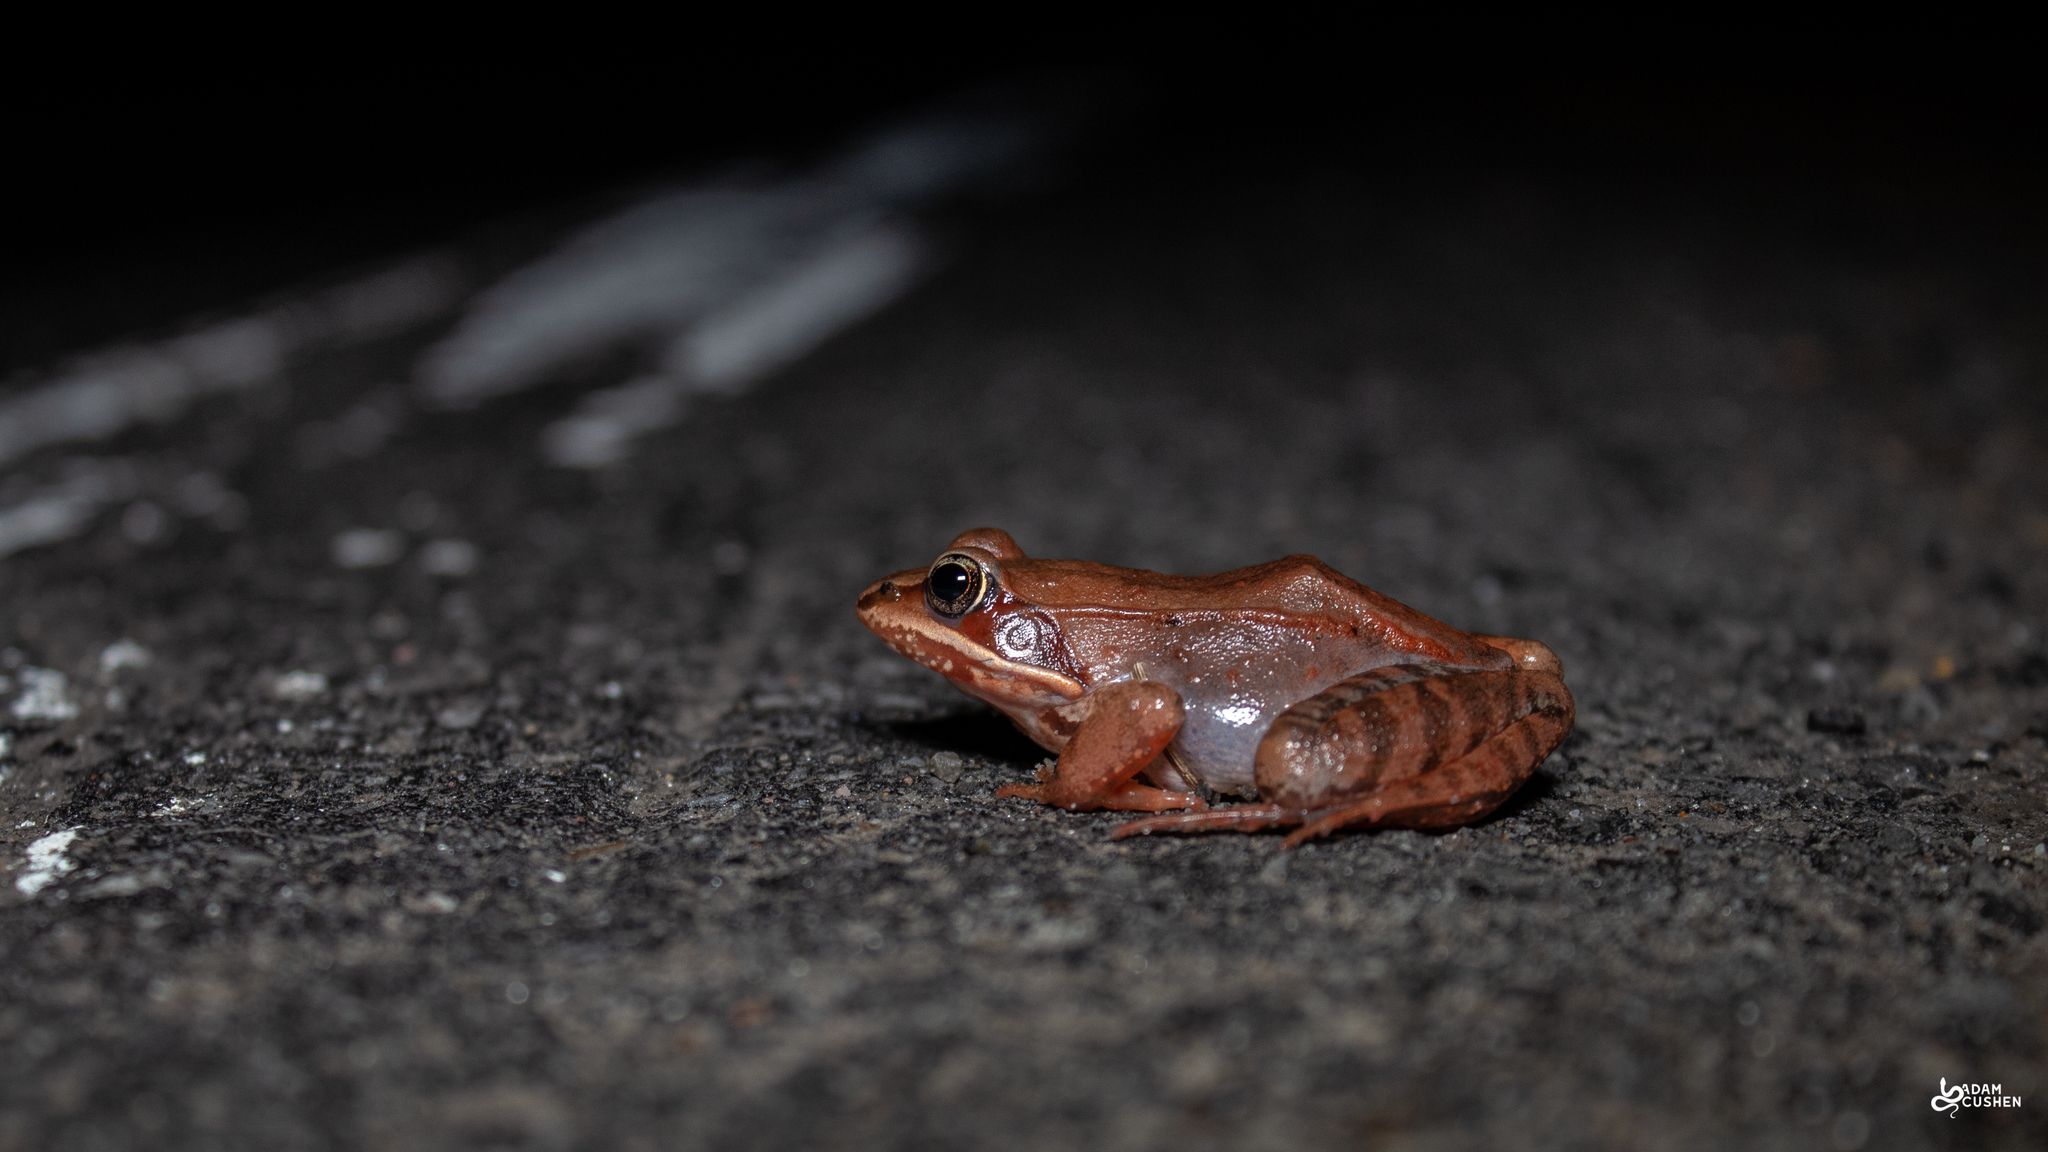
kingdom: Animalia
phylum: Chordata
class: Amphibia
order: Anura
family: Ranidae
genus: Lithobates
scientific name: Lithobates sylvaticus
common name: Wood frog
